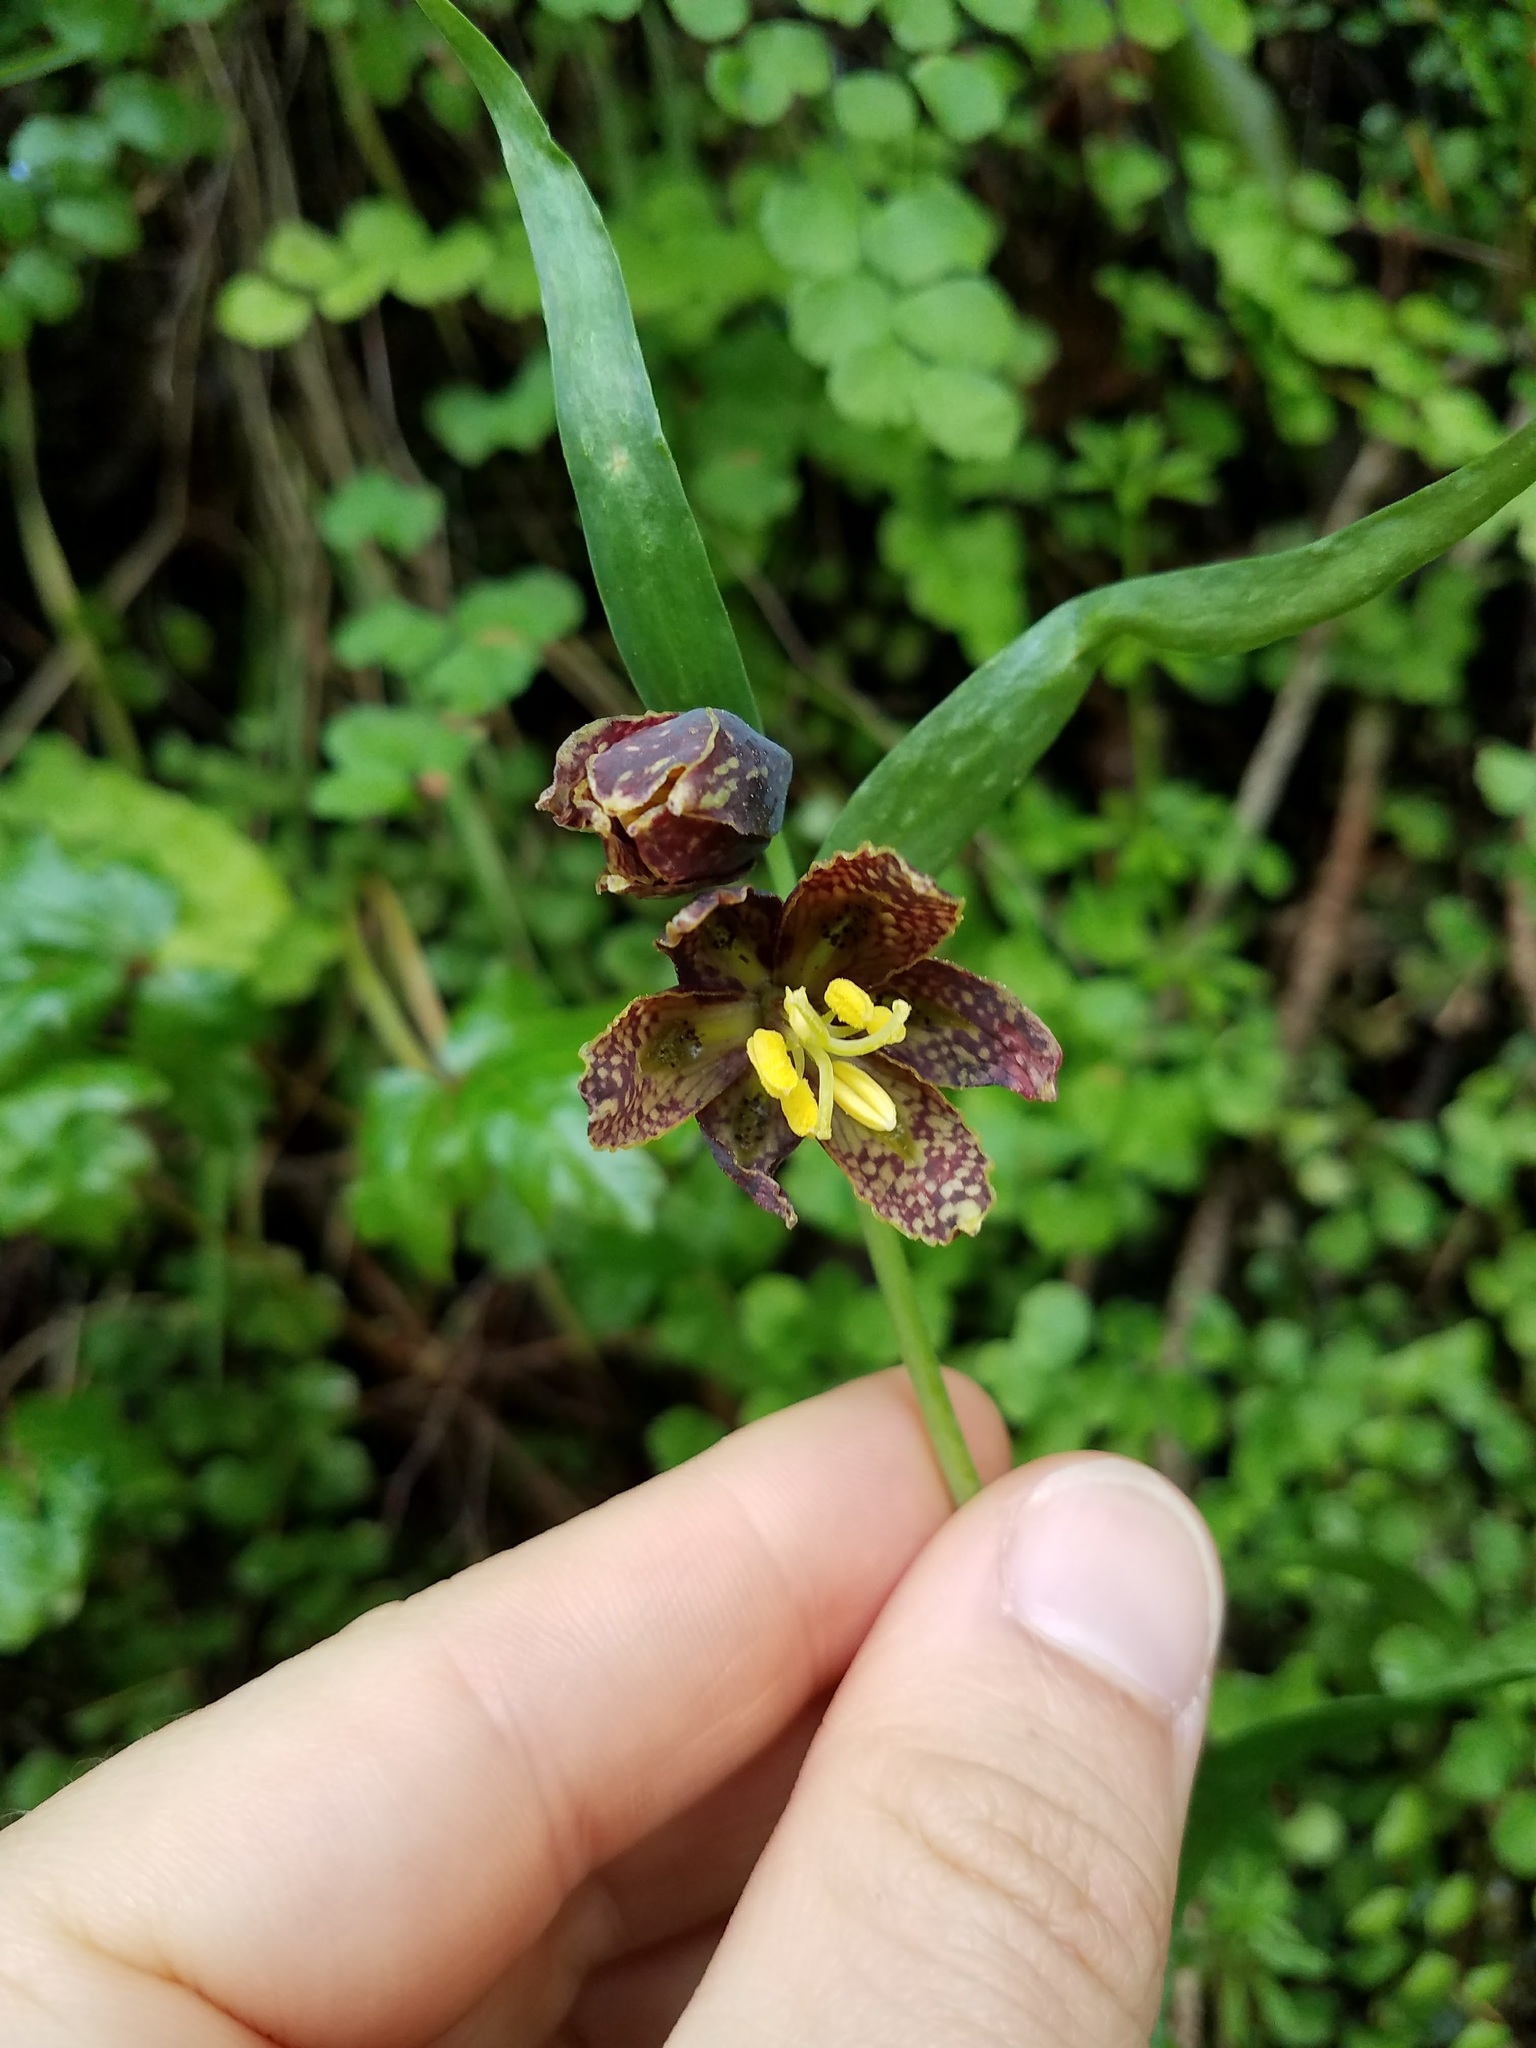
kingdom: Plantae
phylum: Tracheophyta
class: Liliopsida
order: Liliales
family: Liliaceae
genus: Fritillaria
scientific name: Fritillaria affinis
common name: Ojai fritillary
